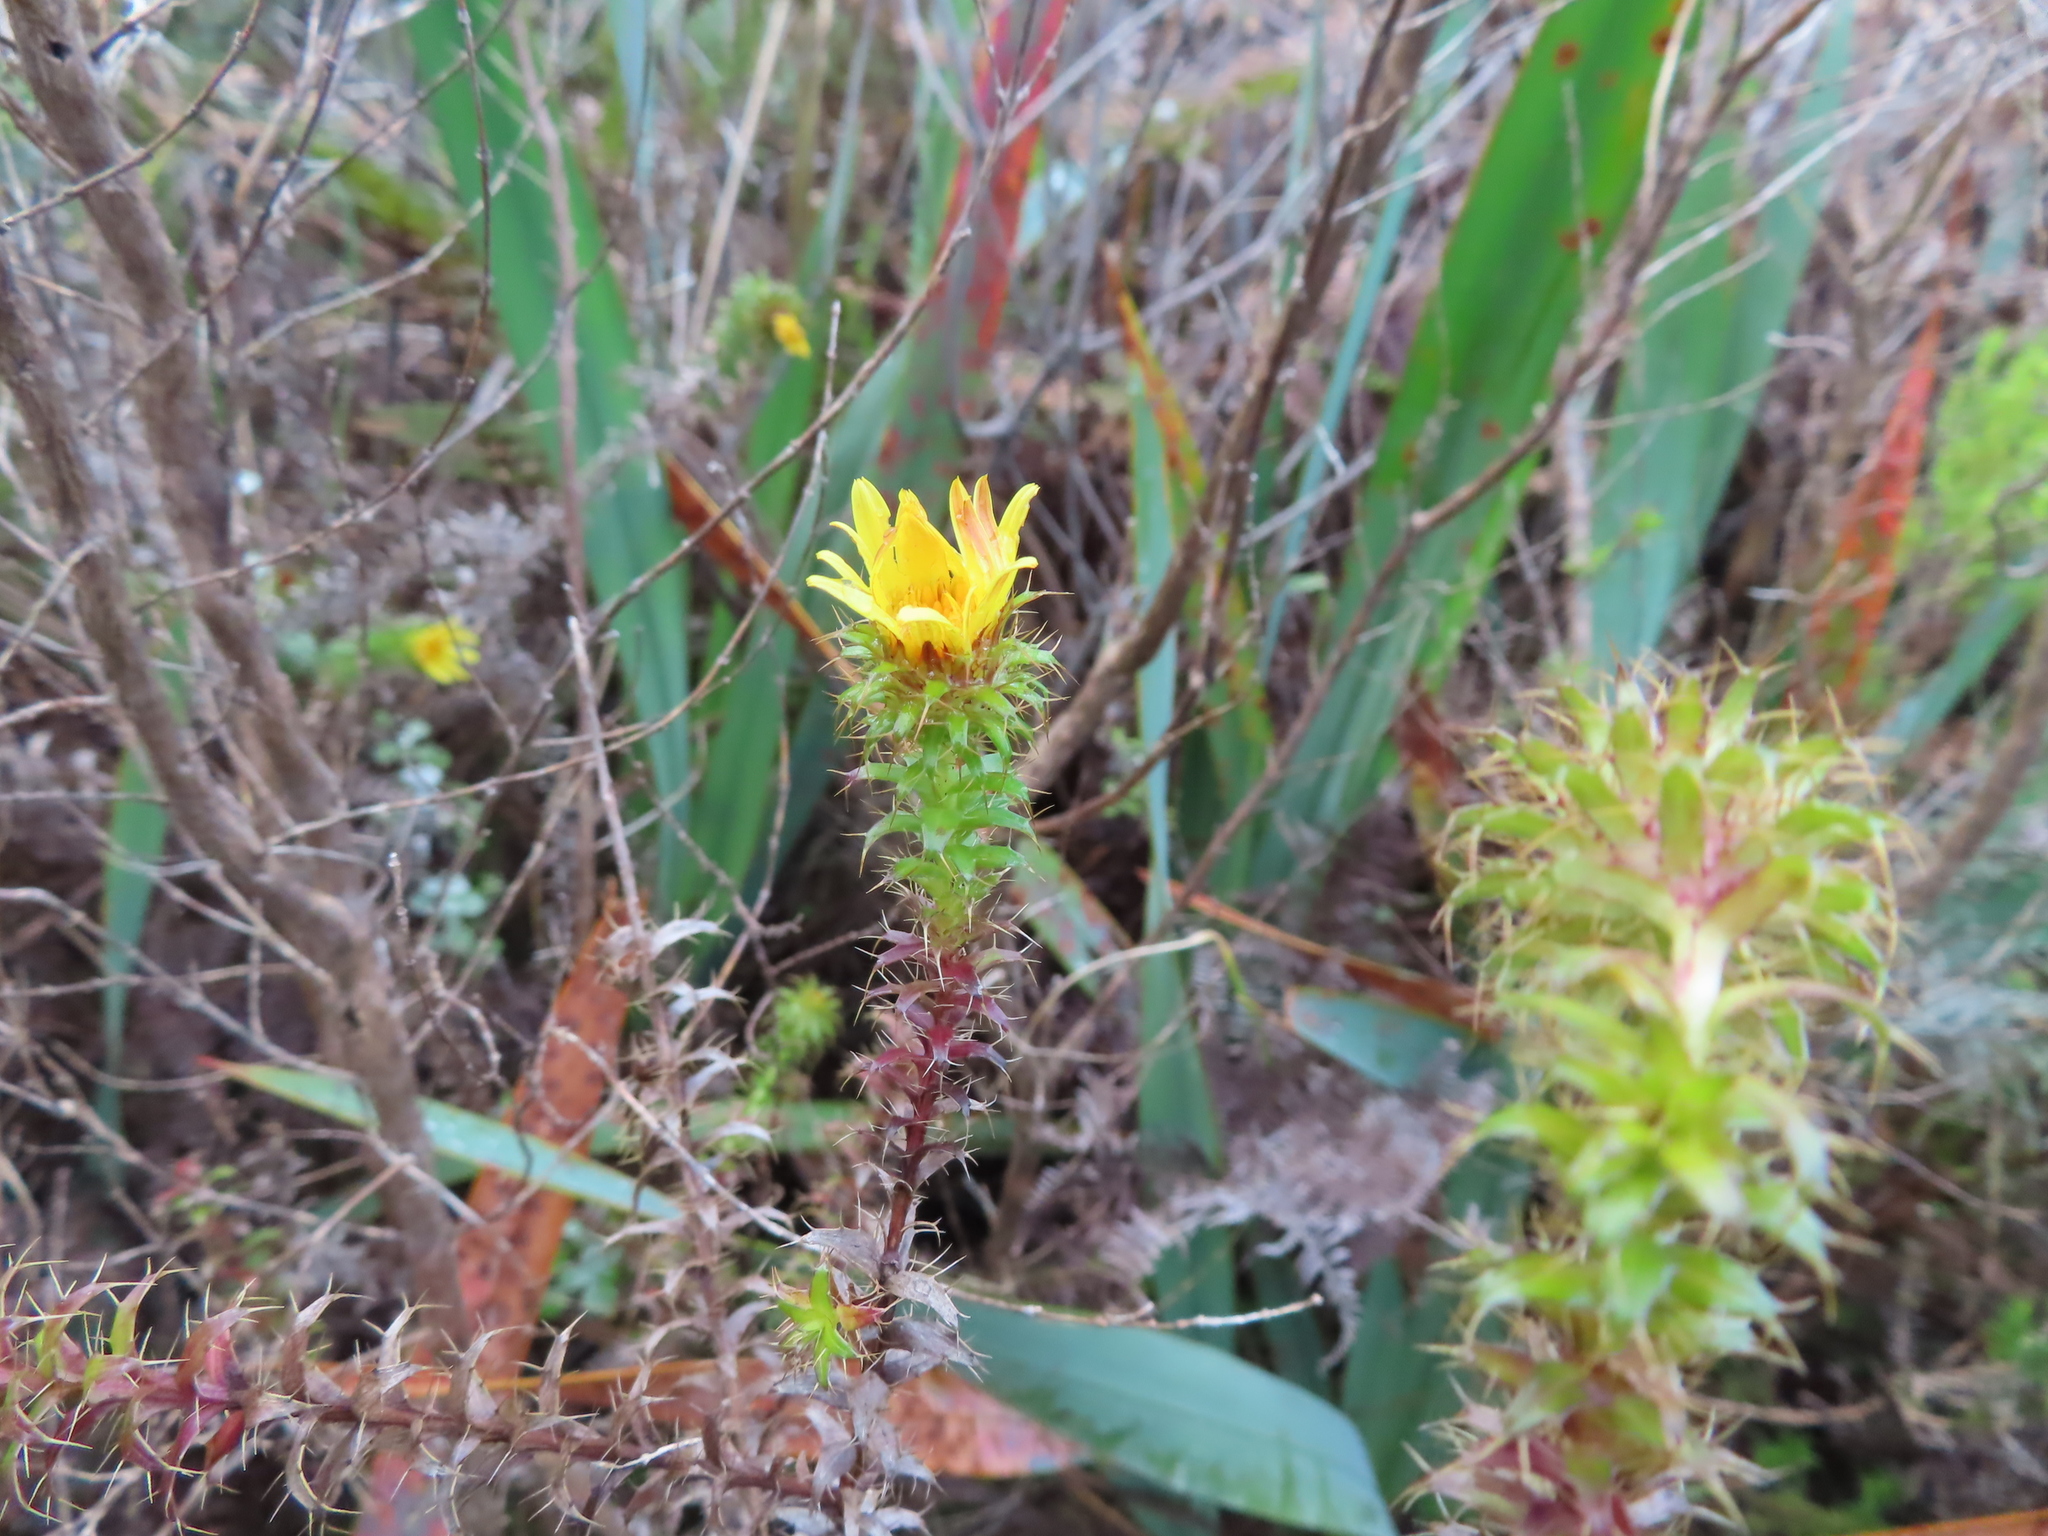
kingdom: Plantae
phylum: Tracheophyta
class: Magnoliopsida
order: Asterales
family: Asteraceae
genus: Cullumia
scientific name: Cullumia setosa
